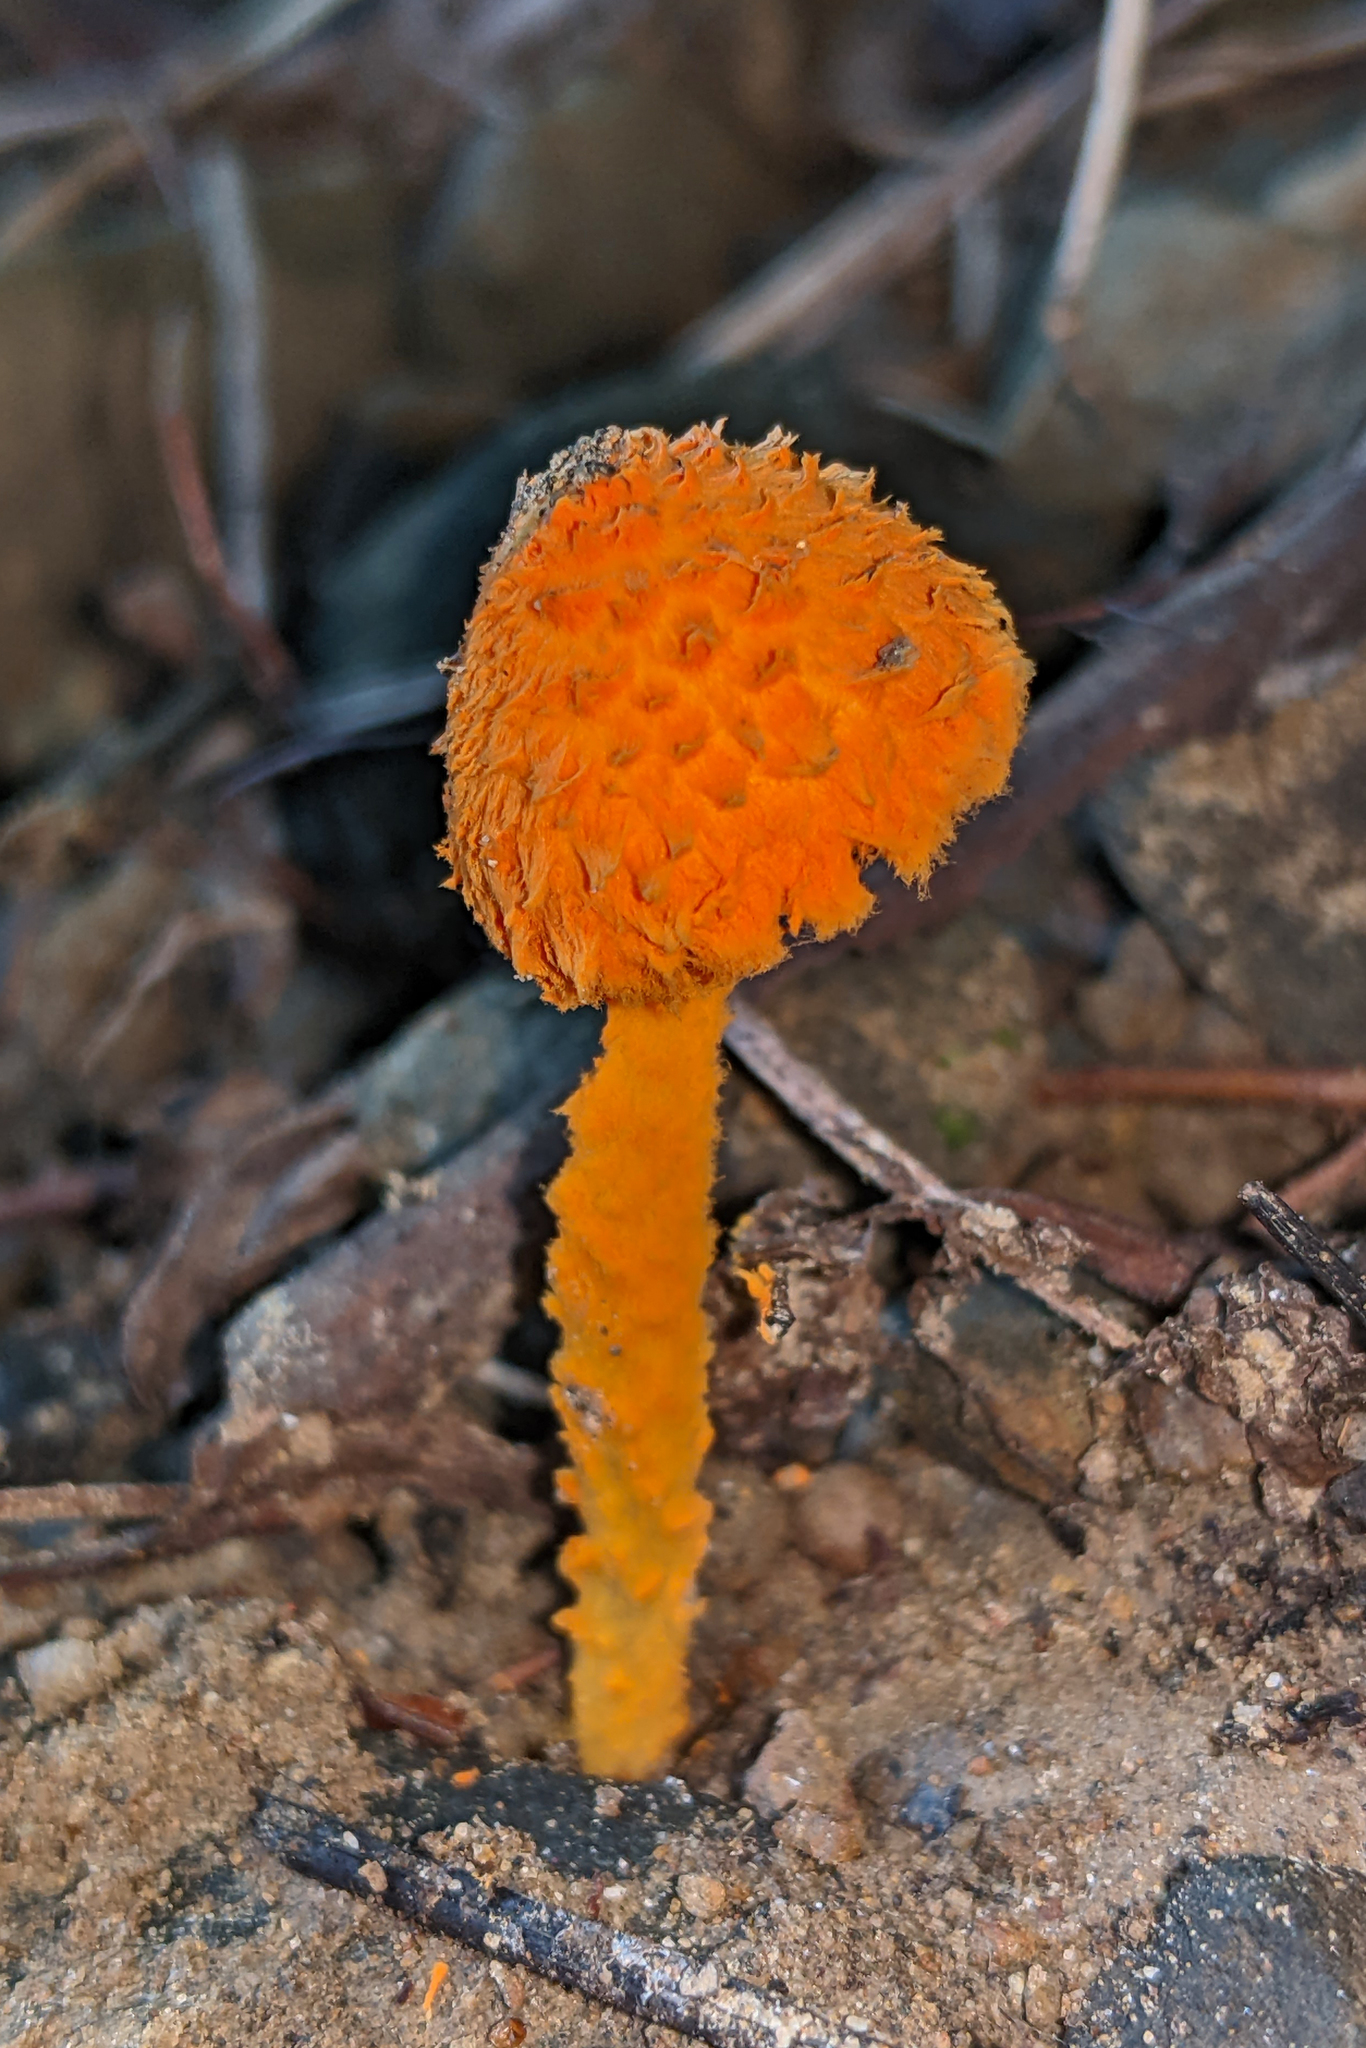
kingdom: Fungi
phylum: Basidiomycota
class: Agaricomycetes
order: Agaricales
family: Agaricaceae
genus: Agaricus
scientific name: Agaricus trisulphuratus
